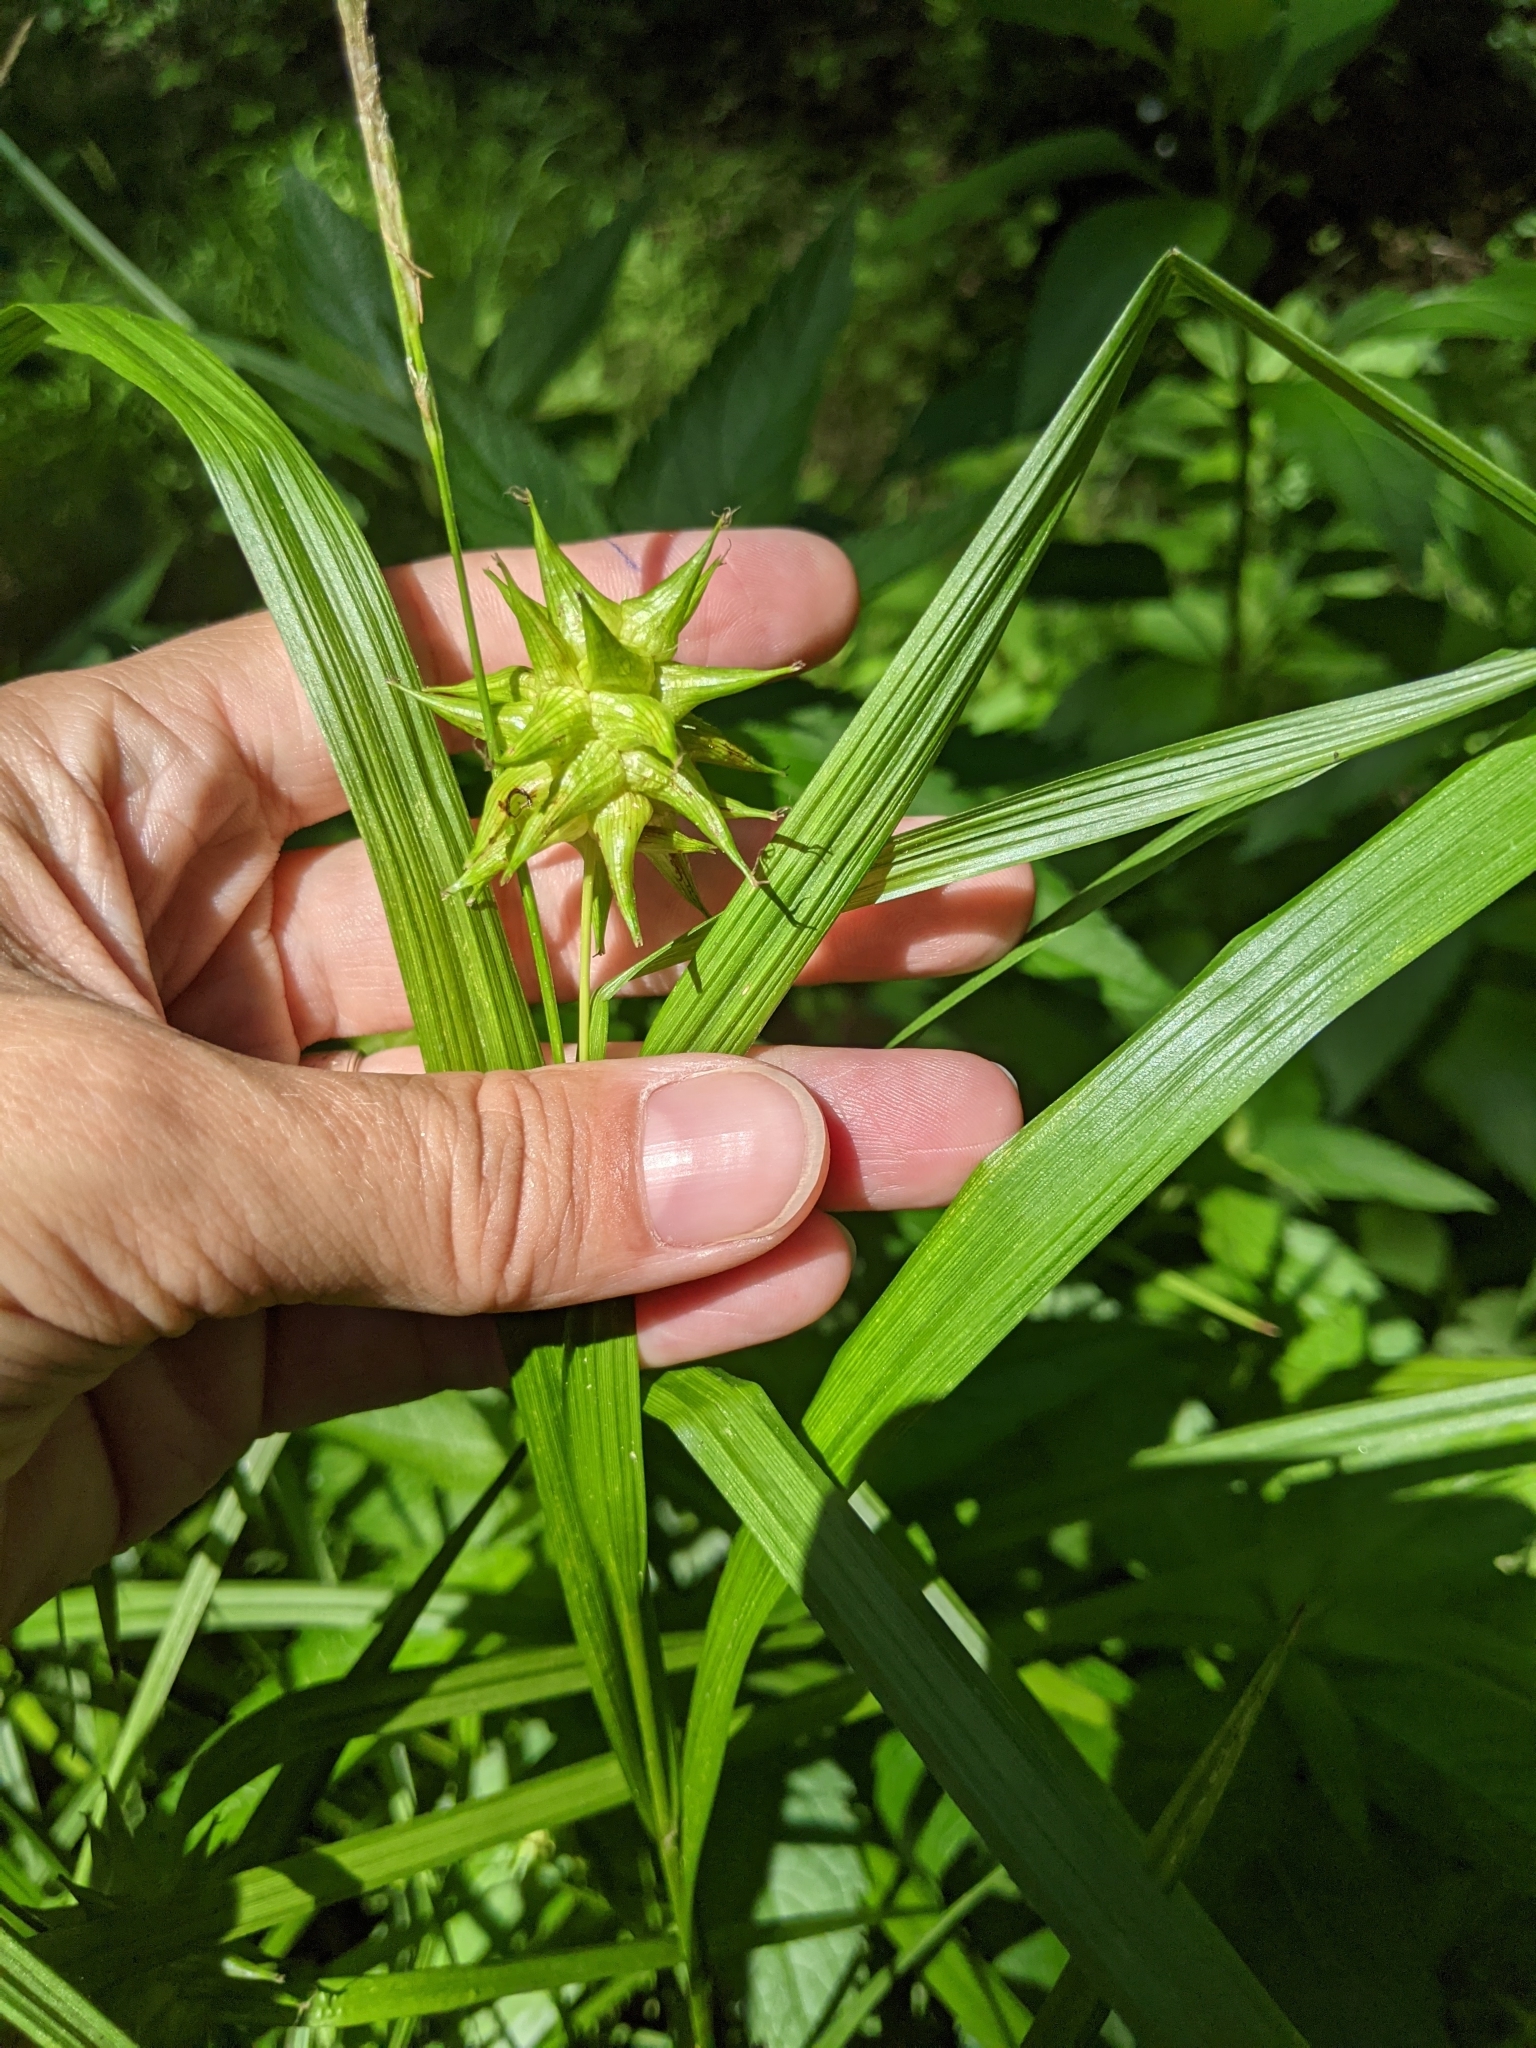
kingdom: Plantae
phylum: Tracheophyta
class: Liliopsida
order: Poales
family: Cyperaceae
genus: Carex
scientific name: Carex grayi
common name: Asa gray's sedge
